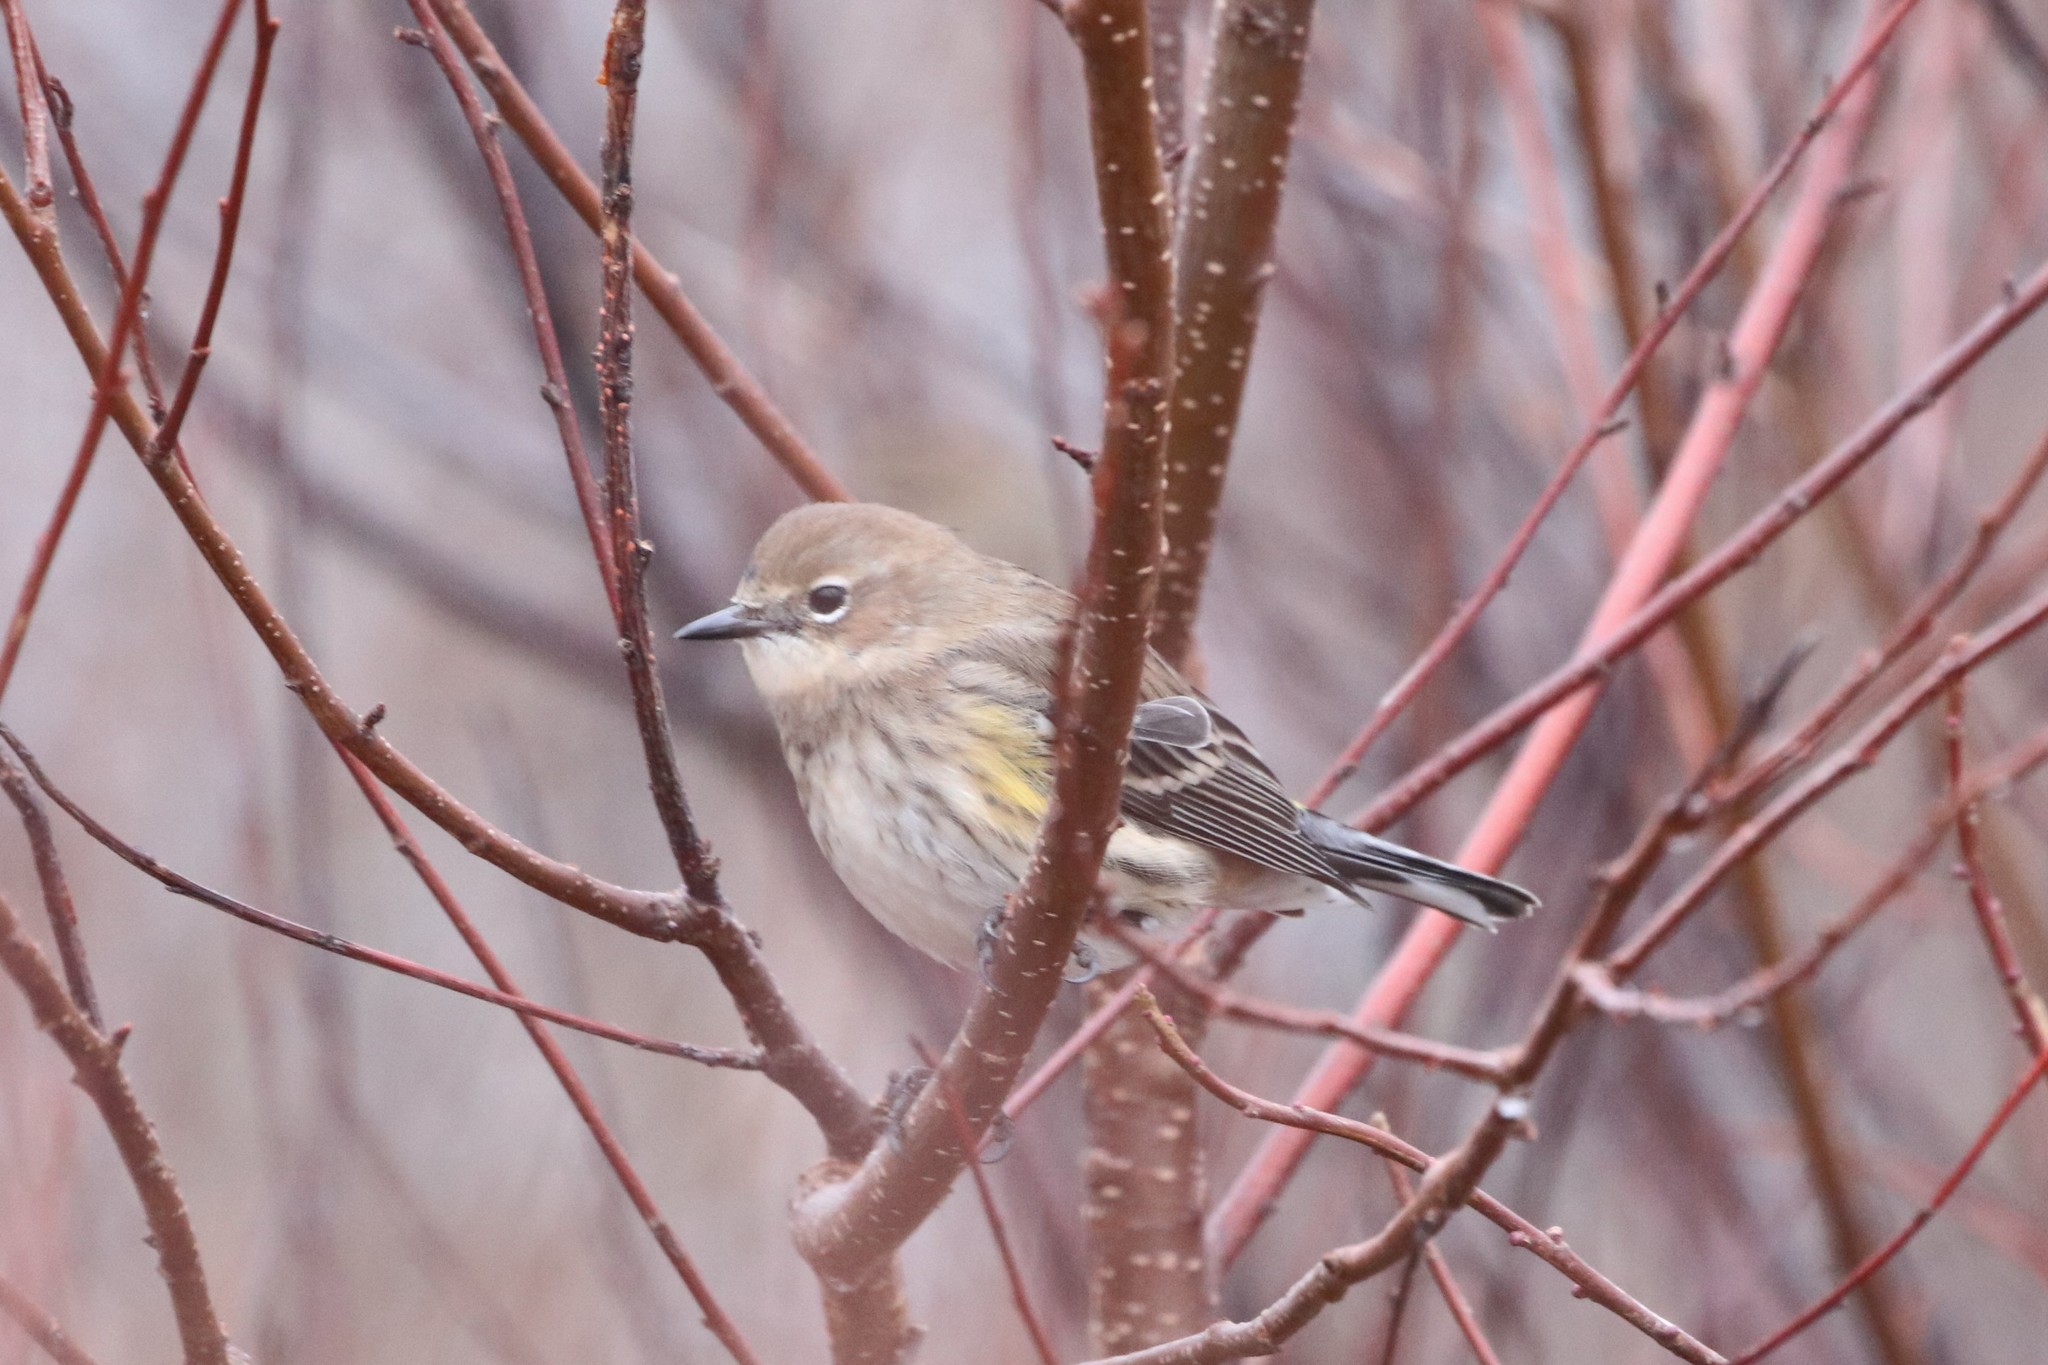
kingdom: Animalia
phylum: Chordata
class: Aves
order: Passeriformes
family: Parulidae
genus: Setophaga
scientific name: Setophaga coronata
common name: Myrtle warbler
